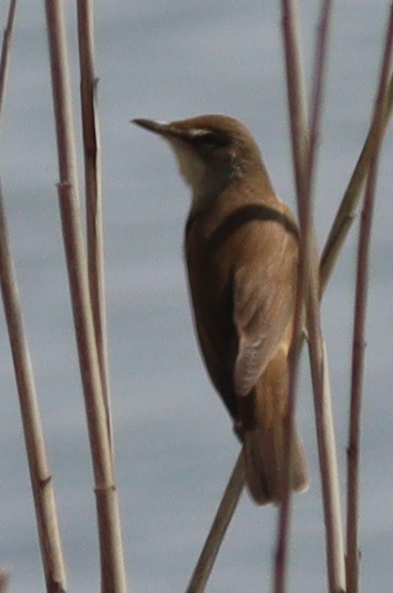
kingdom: Animalia
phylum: Chordata
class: Aves
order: Passeriformes
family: Acrocephalidae
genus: Acrocephalus
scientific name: Acrocephalus arundinaceus
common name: Great reed warbler
